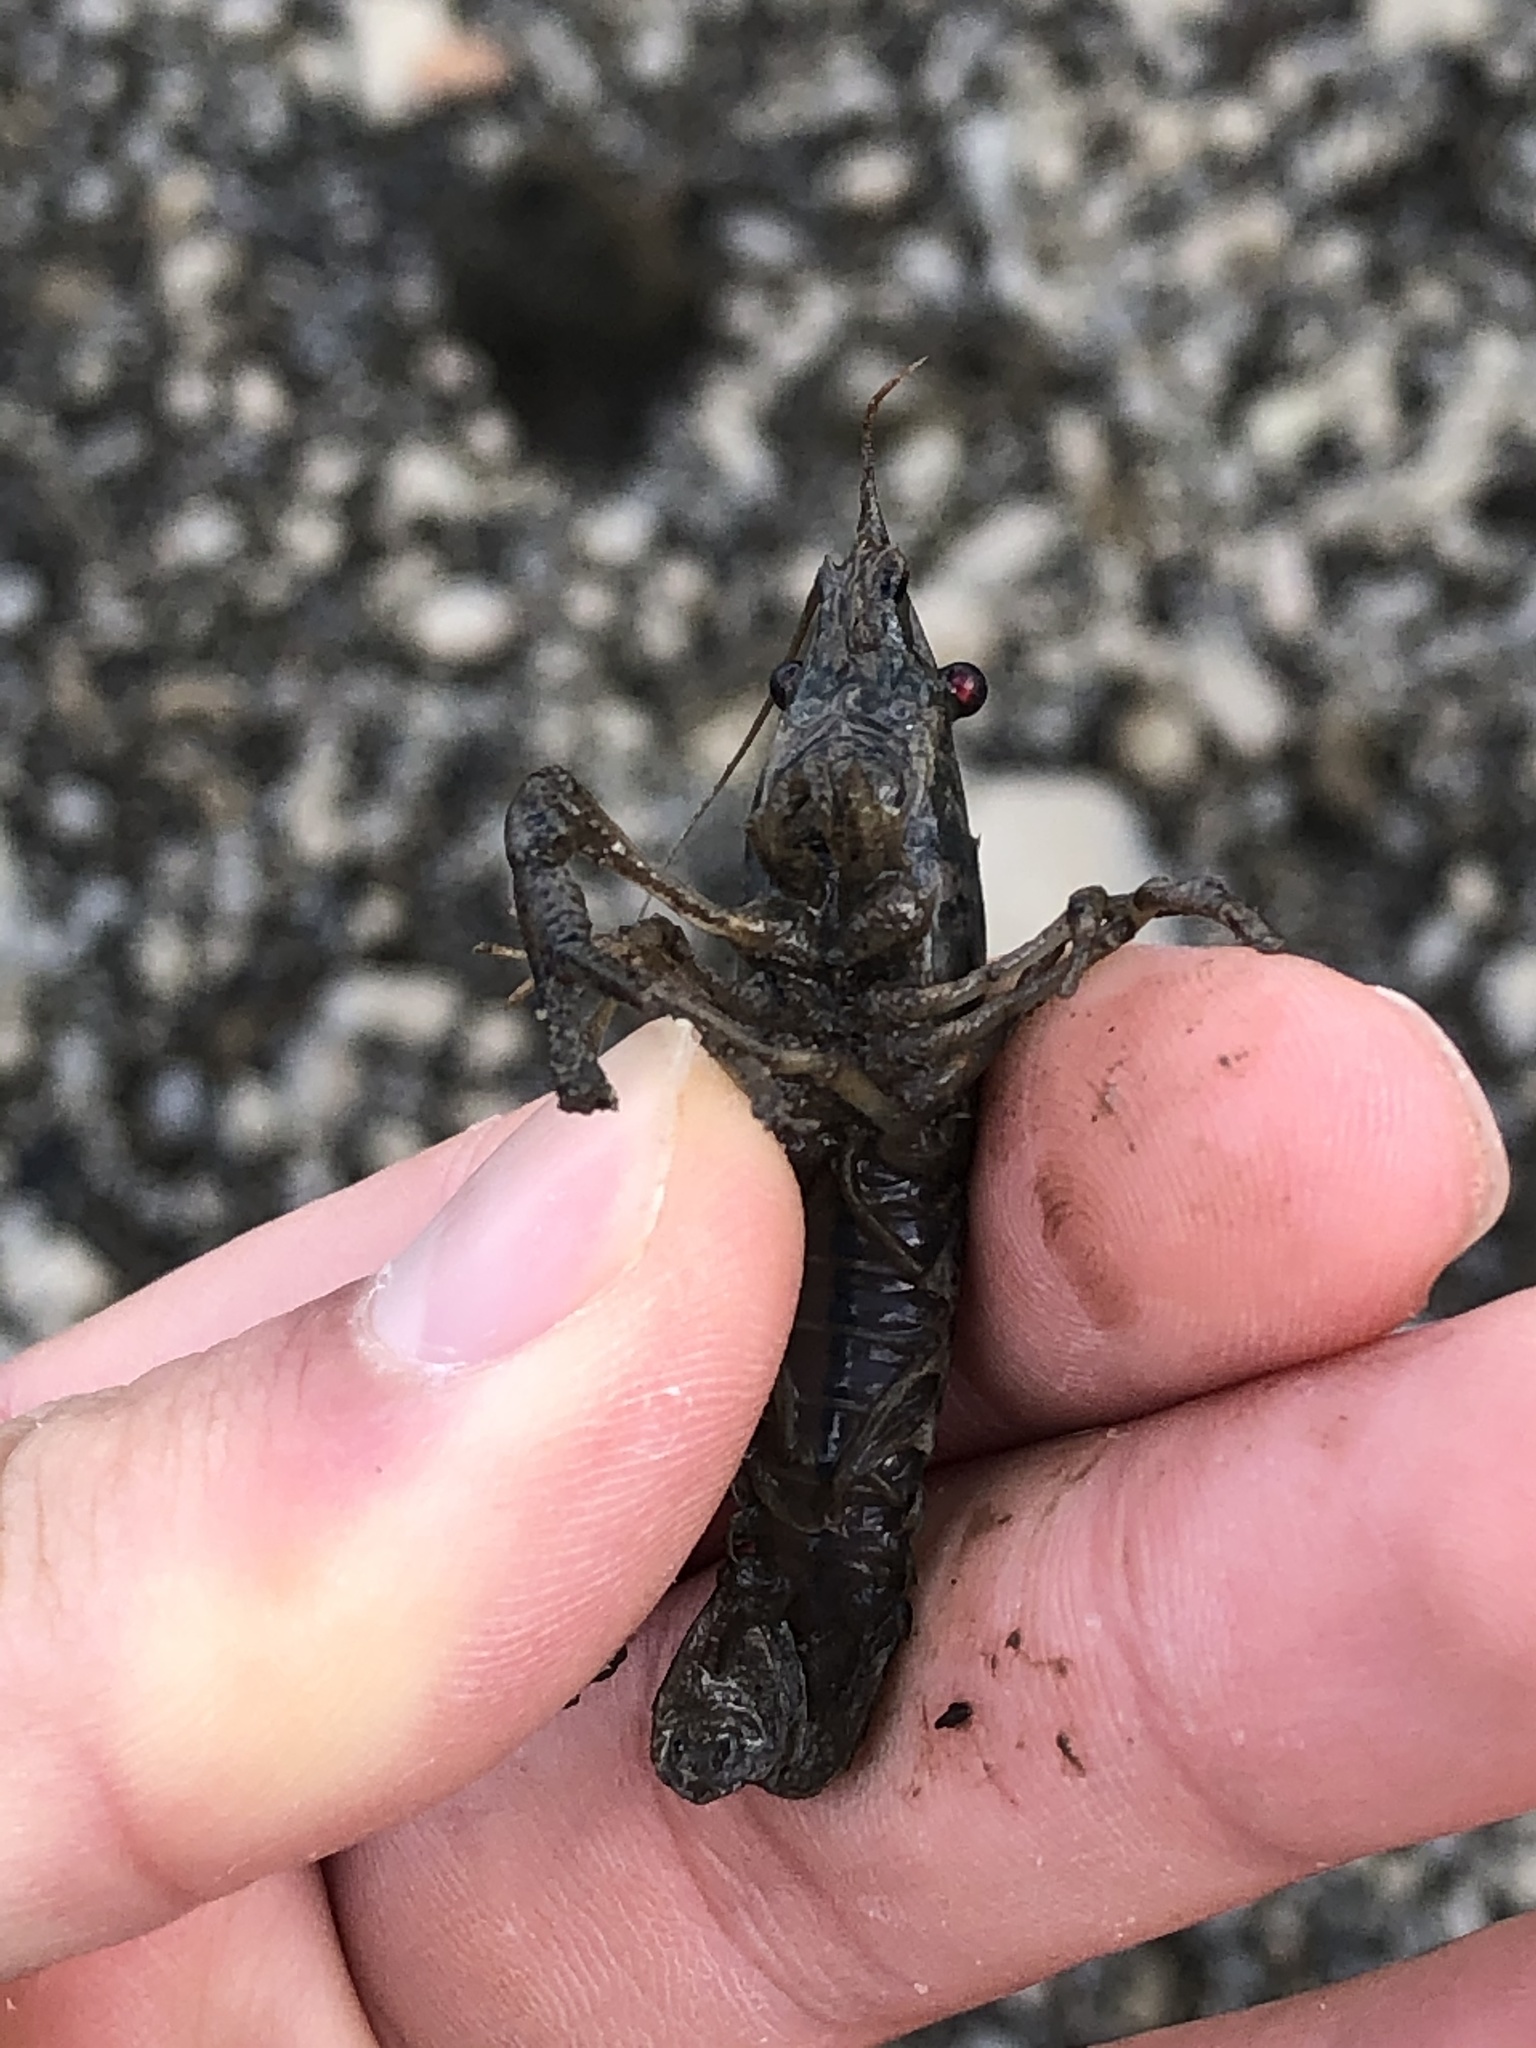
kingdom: Animalia
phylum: Arthropoda
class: Malacostraca
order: Decapoda
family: Cambaridae
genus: Procambarus
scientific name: Procambarus clarkii
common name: Red swamp crayfish
